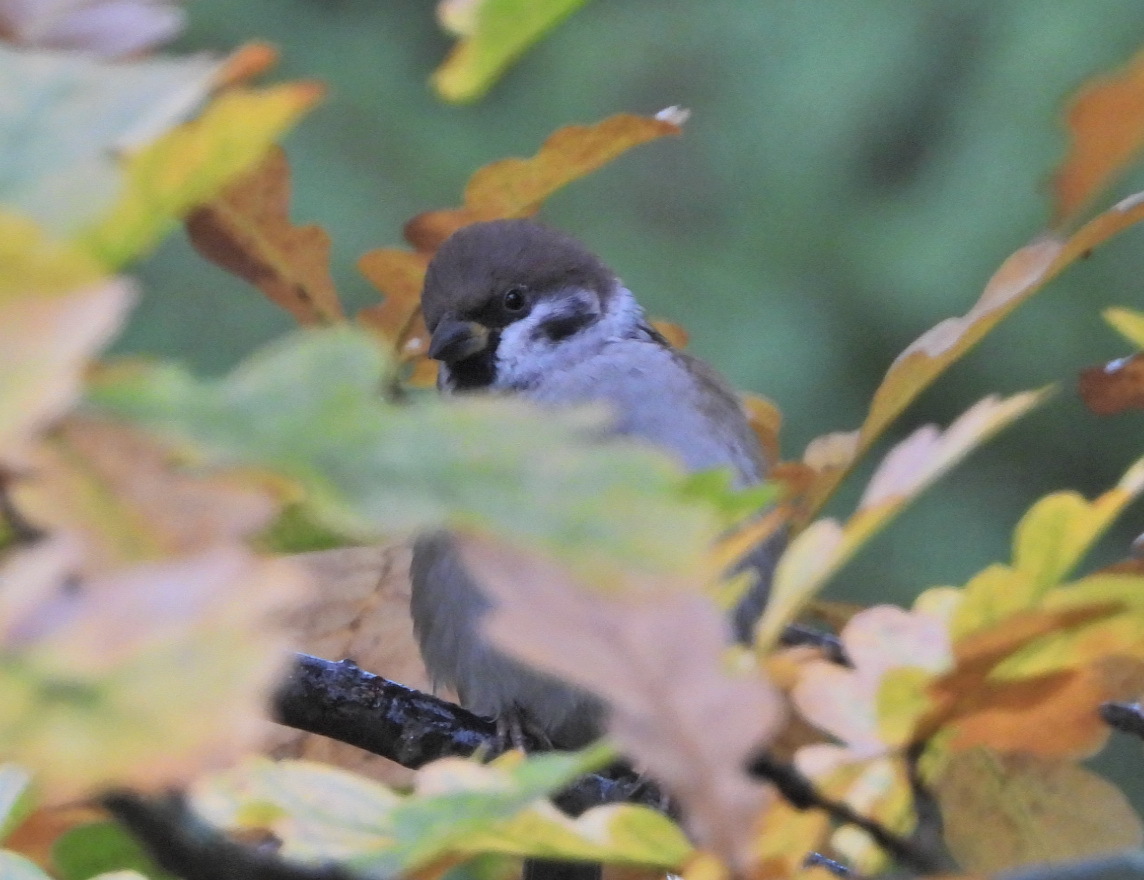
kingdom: Animalia
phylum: Chordata
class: Aves
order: Passeriformes
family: Passeridae
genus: Passer
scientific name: Passer montanus
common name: Eurasian tree sparrow
